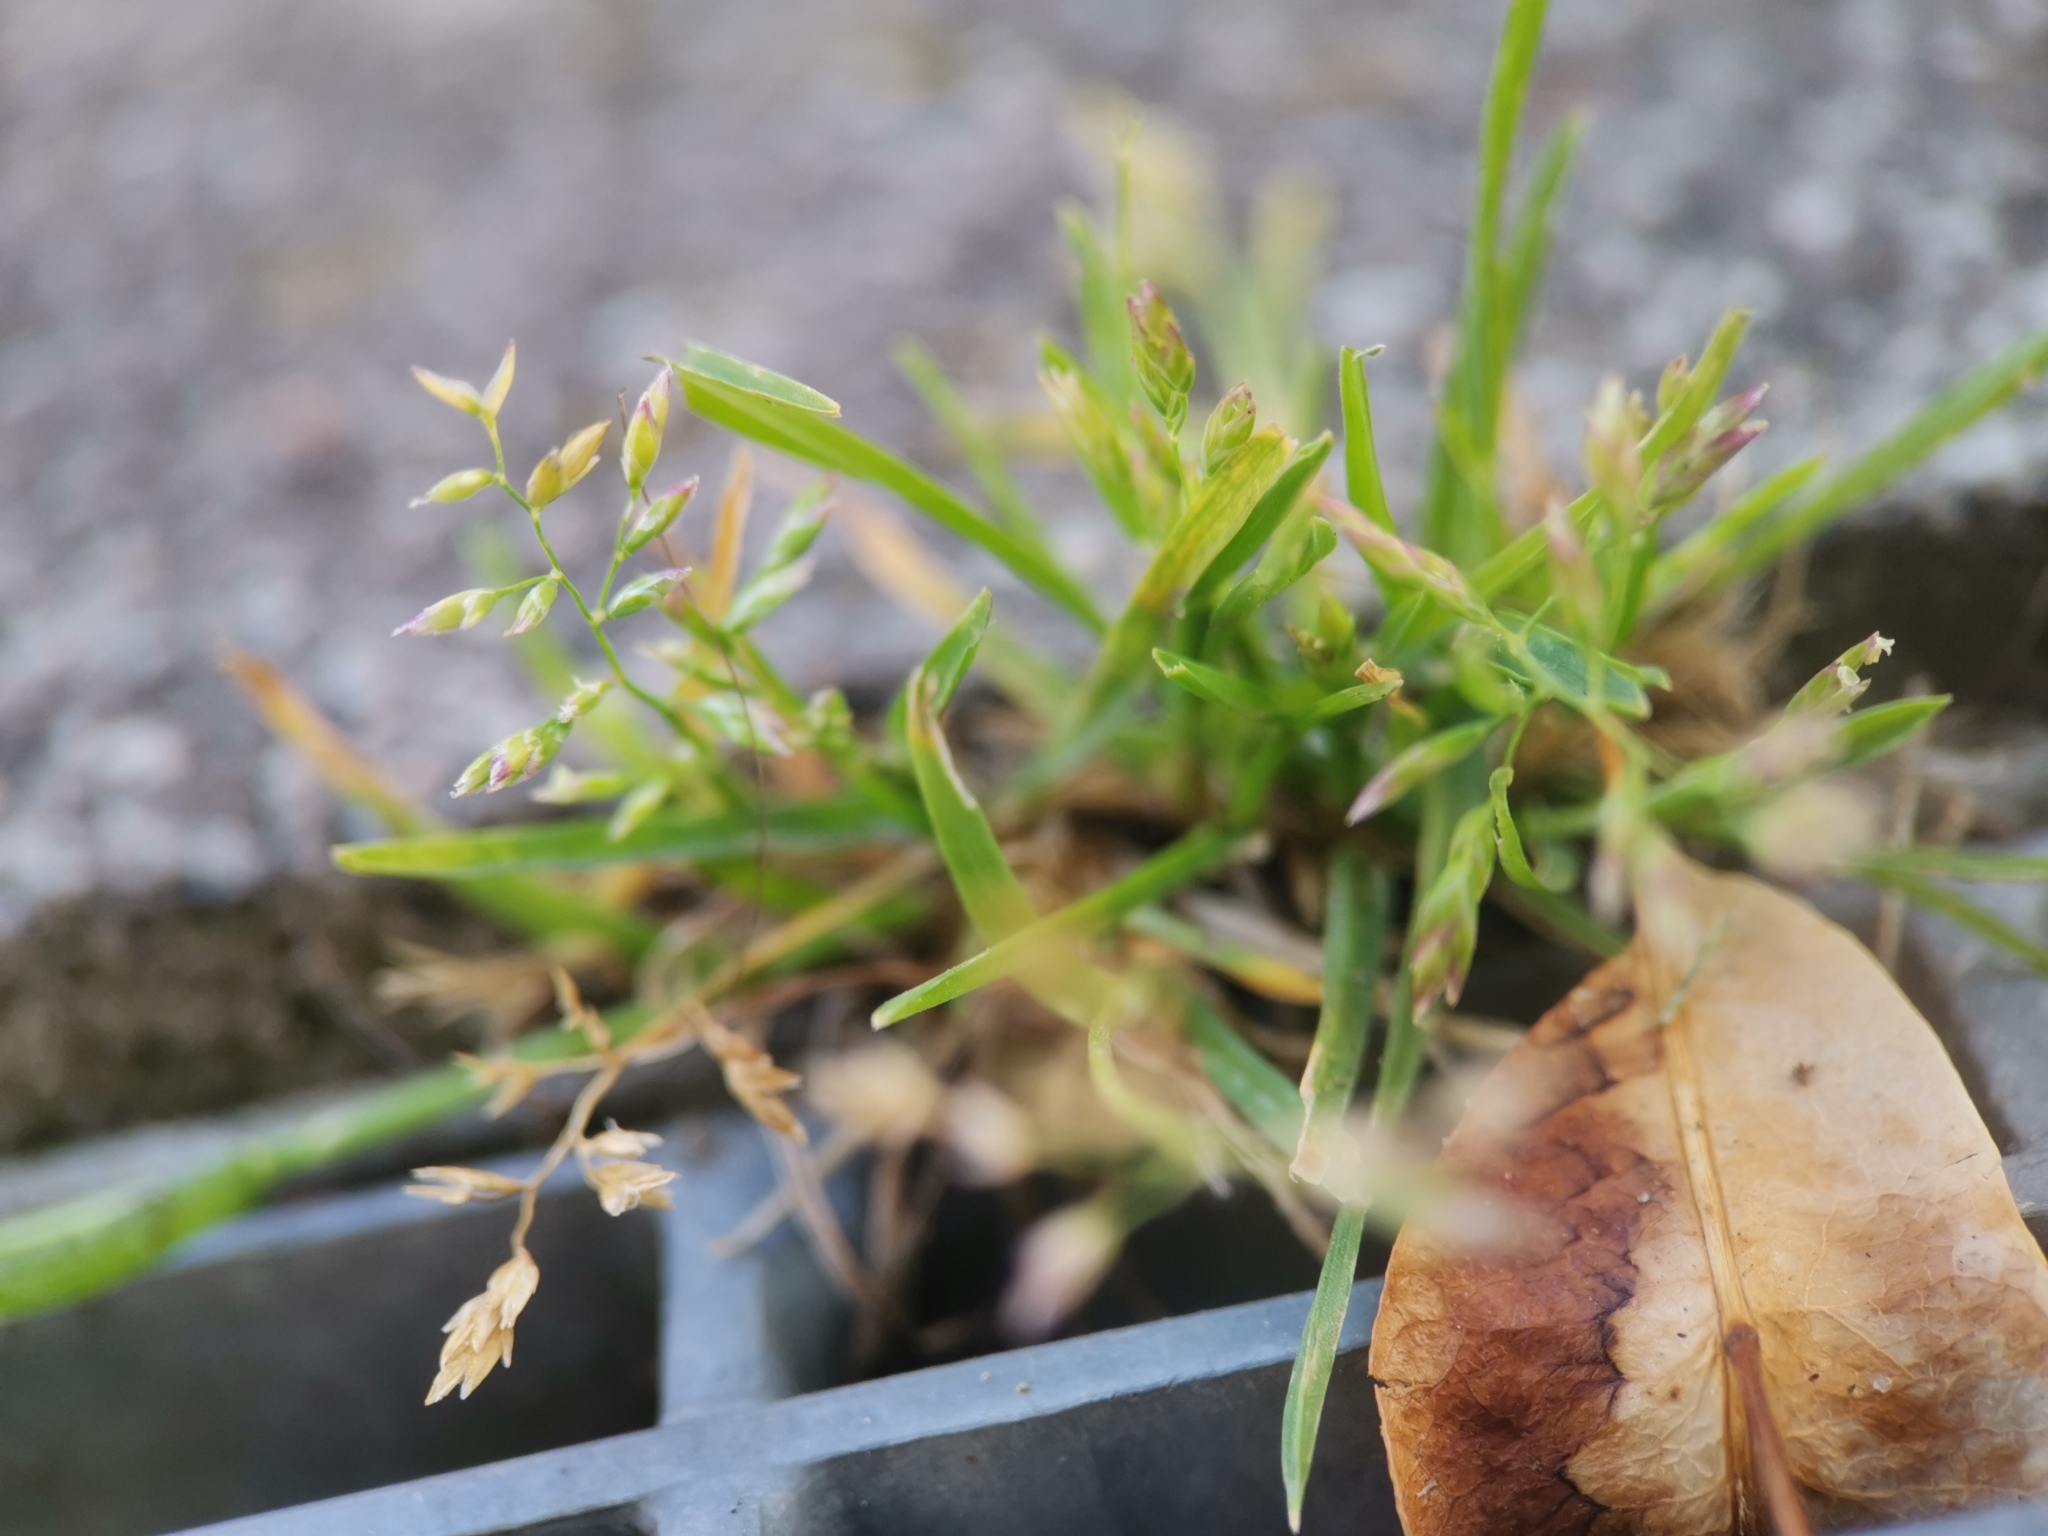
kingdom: Plantae
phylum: Tracheophyta
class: Liliopsida
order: Poales
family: Poaceae
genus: Poa
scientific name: Poa annua
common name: Annual bluegrass
